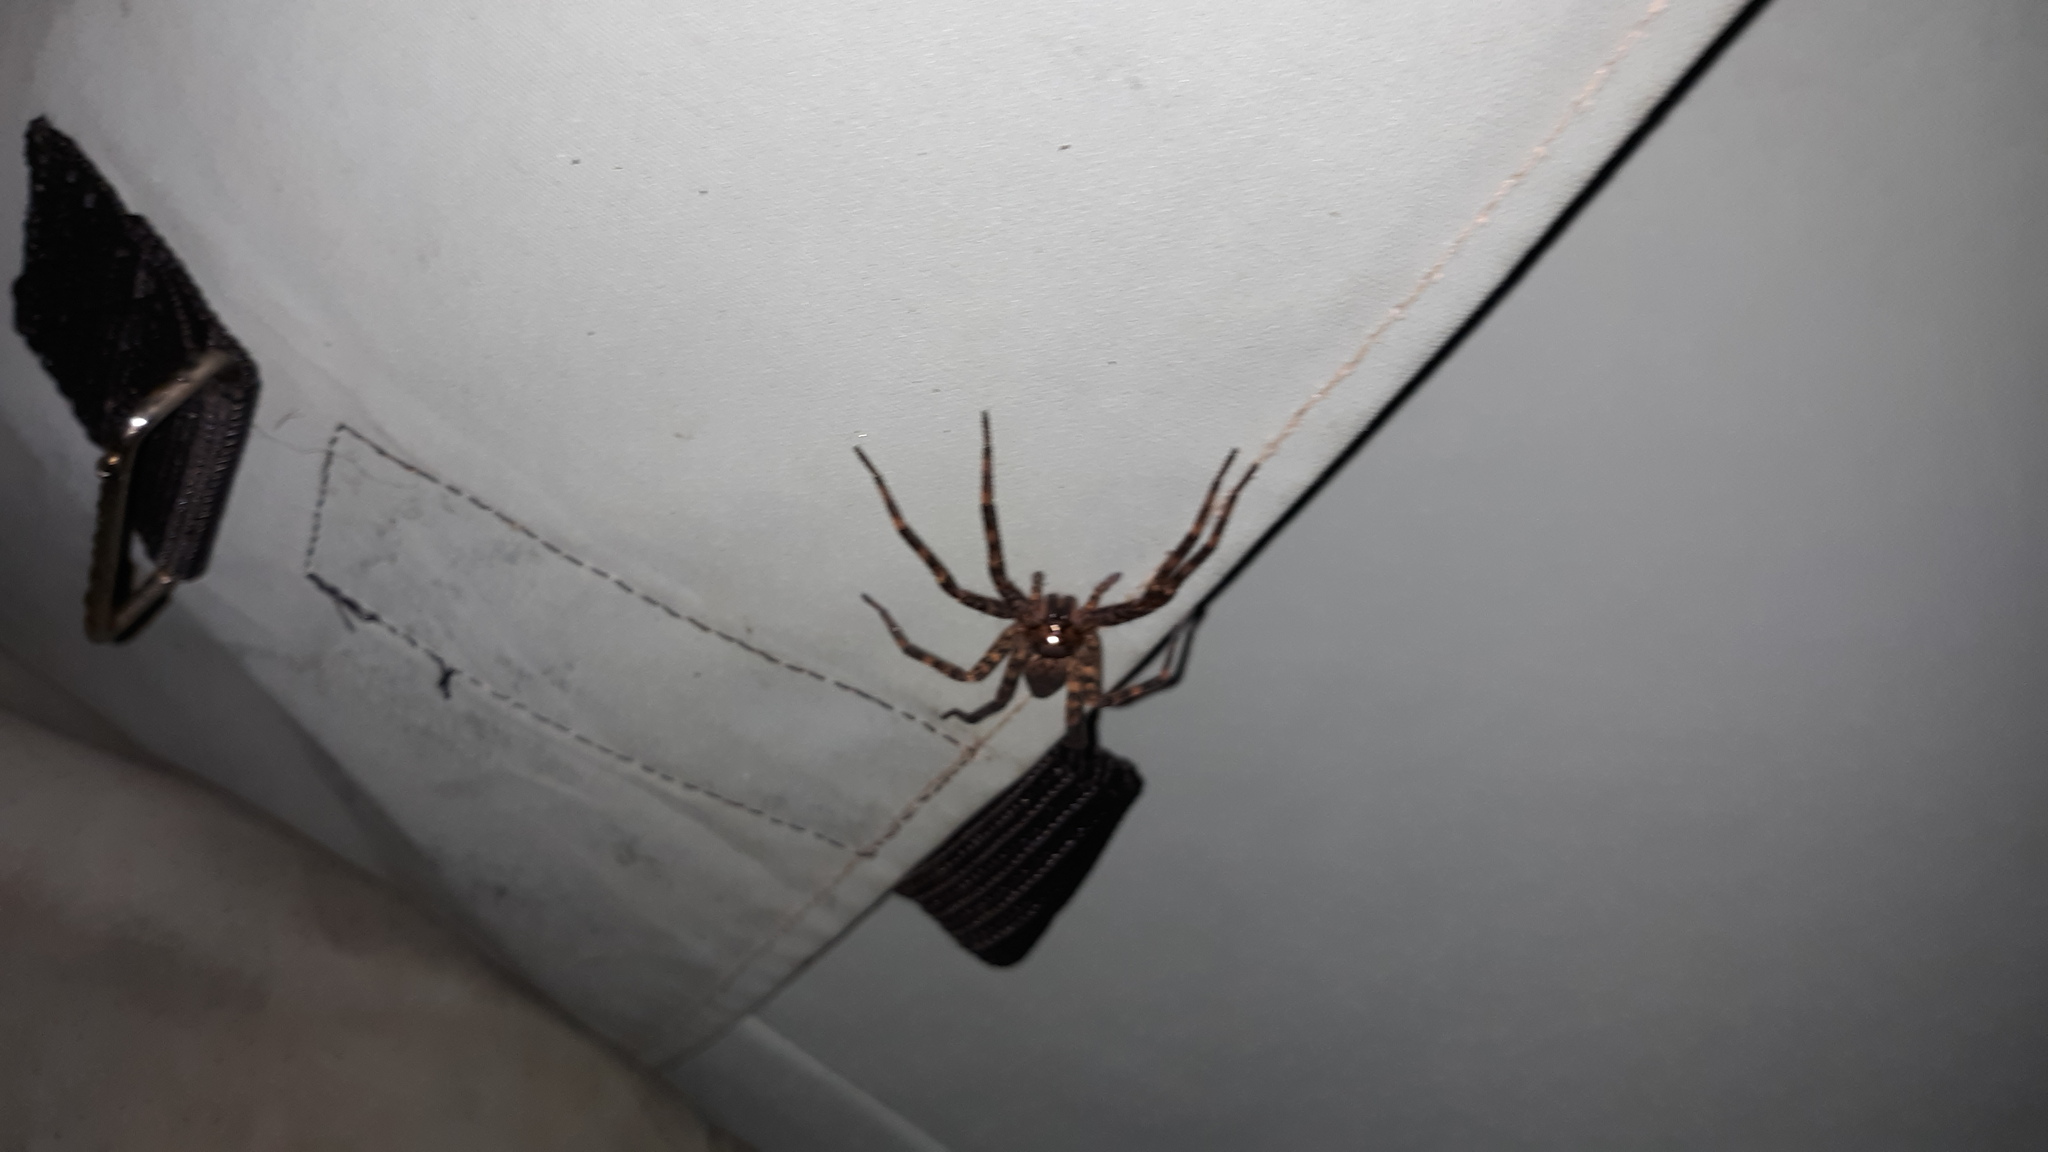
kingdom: Animalia
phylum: Arthropoda
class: Arachnida
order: Araneae
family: Pisauridae
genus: Dolomedes
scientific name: Dolomedes tenebrosus
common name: Dark fishing spider
